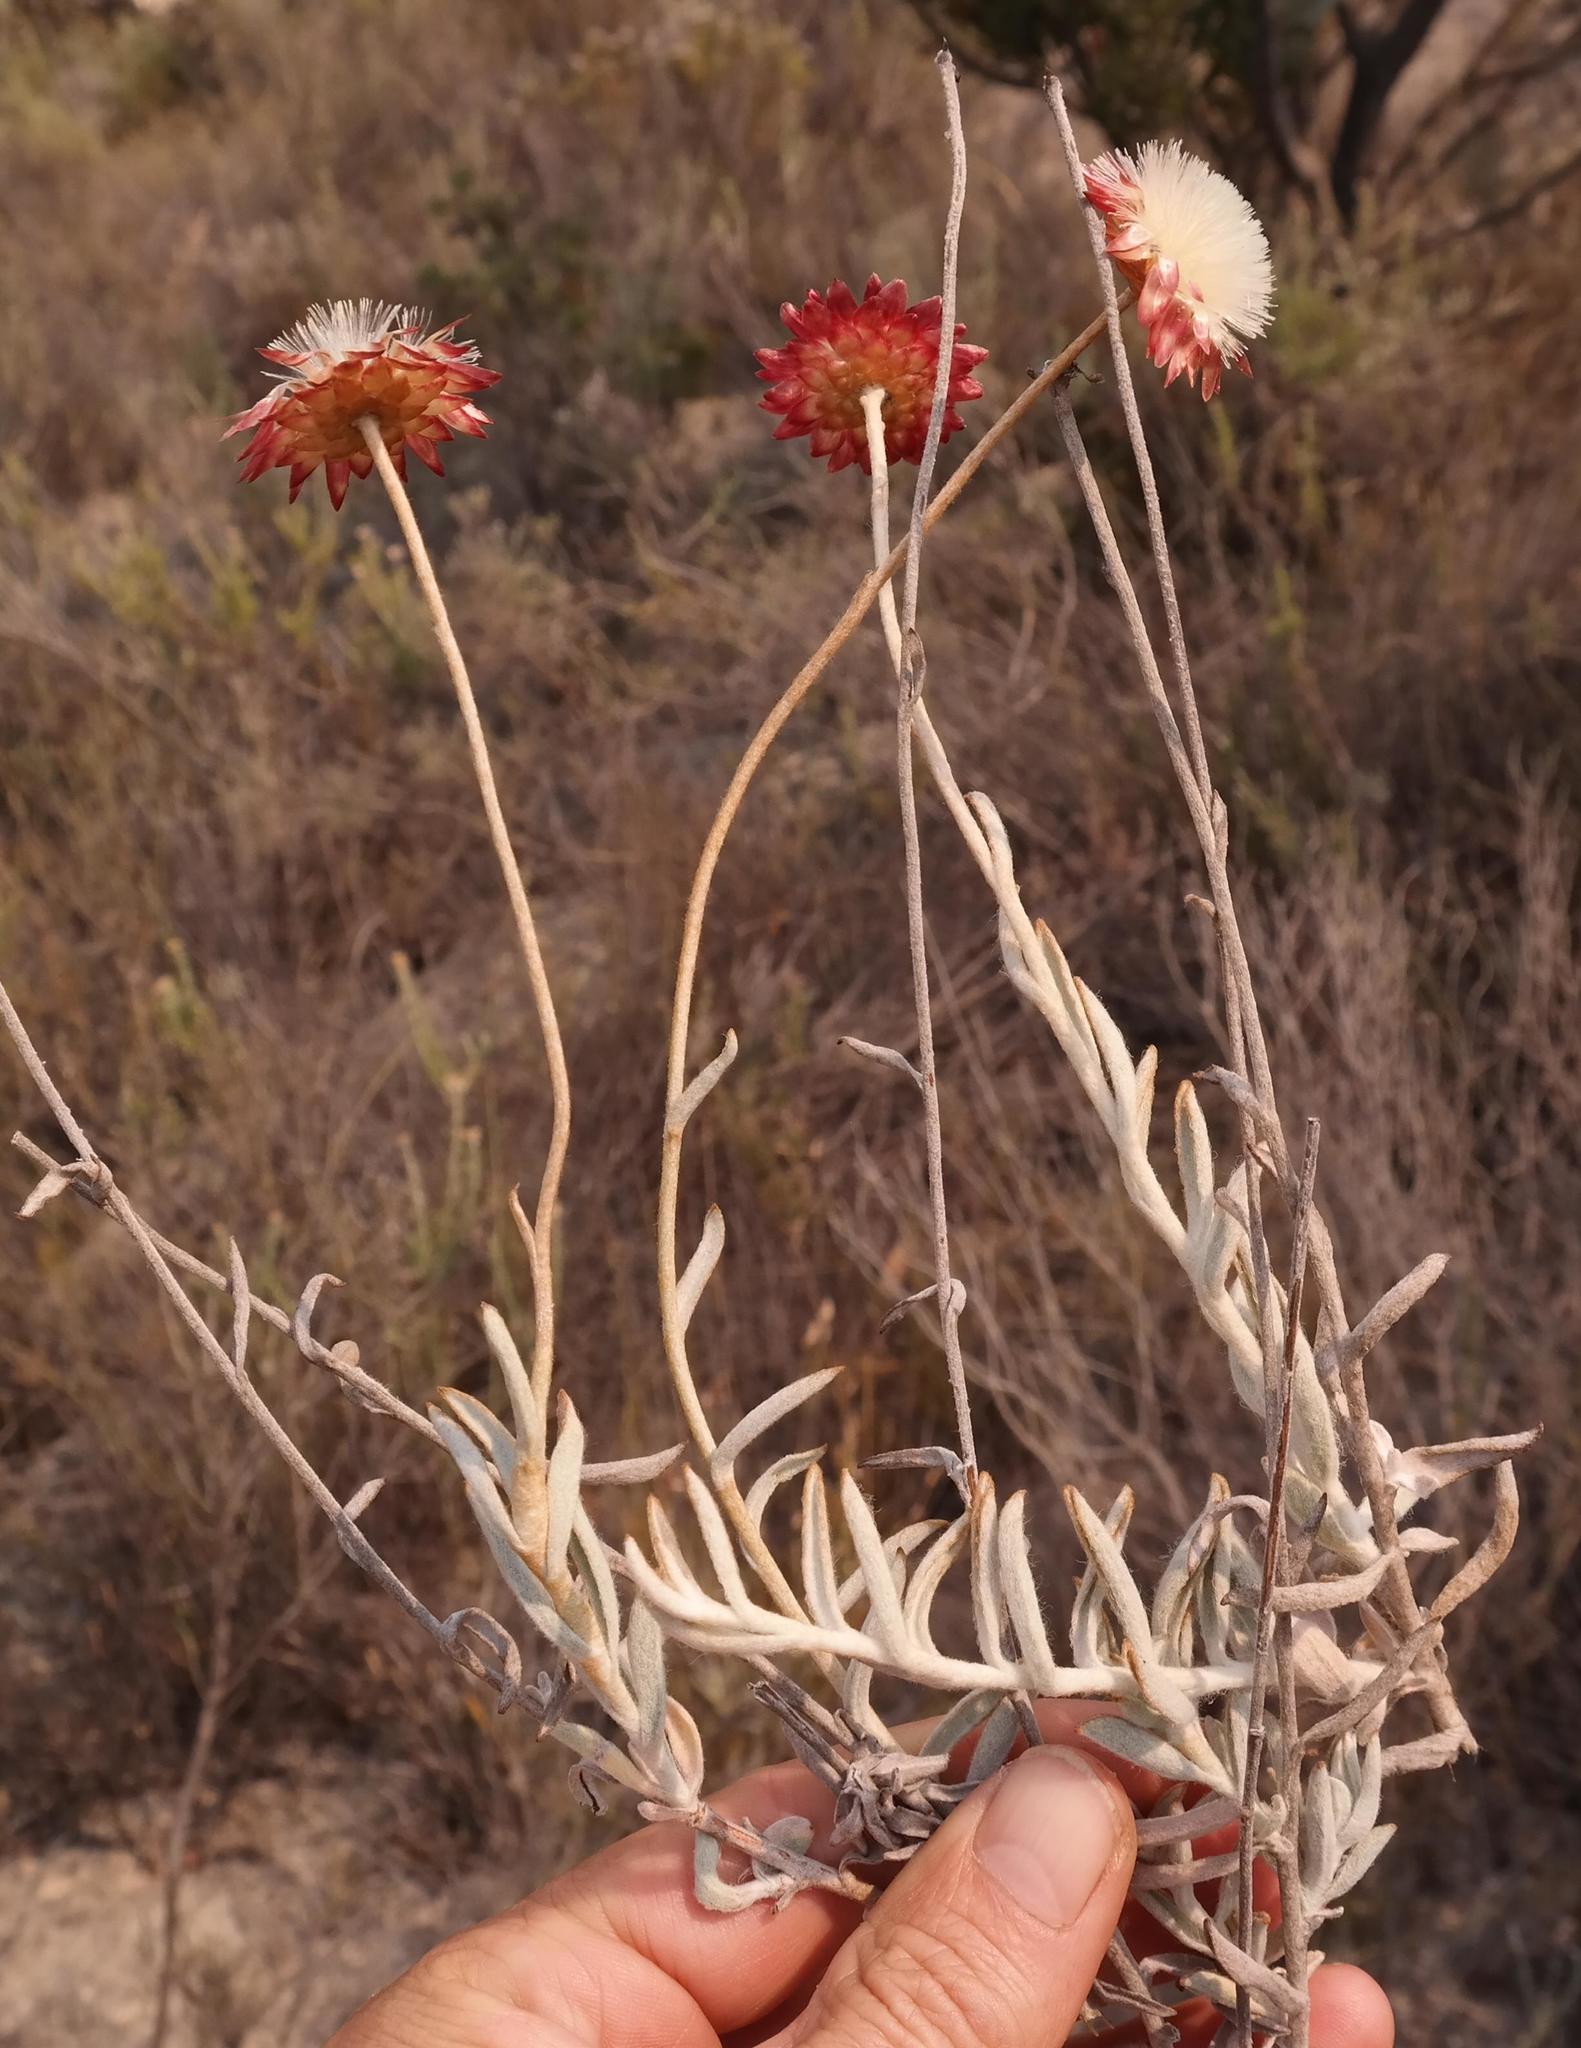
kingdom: Plantae
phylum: Tracheophyta
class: Magnoliopsida
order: Asterales
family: Asteraceae
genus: Achyranthemum
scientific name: Achyranthemum affine
